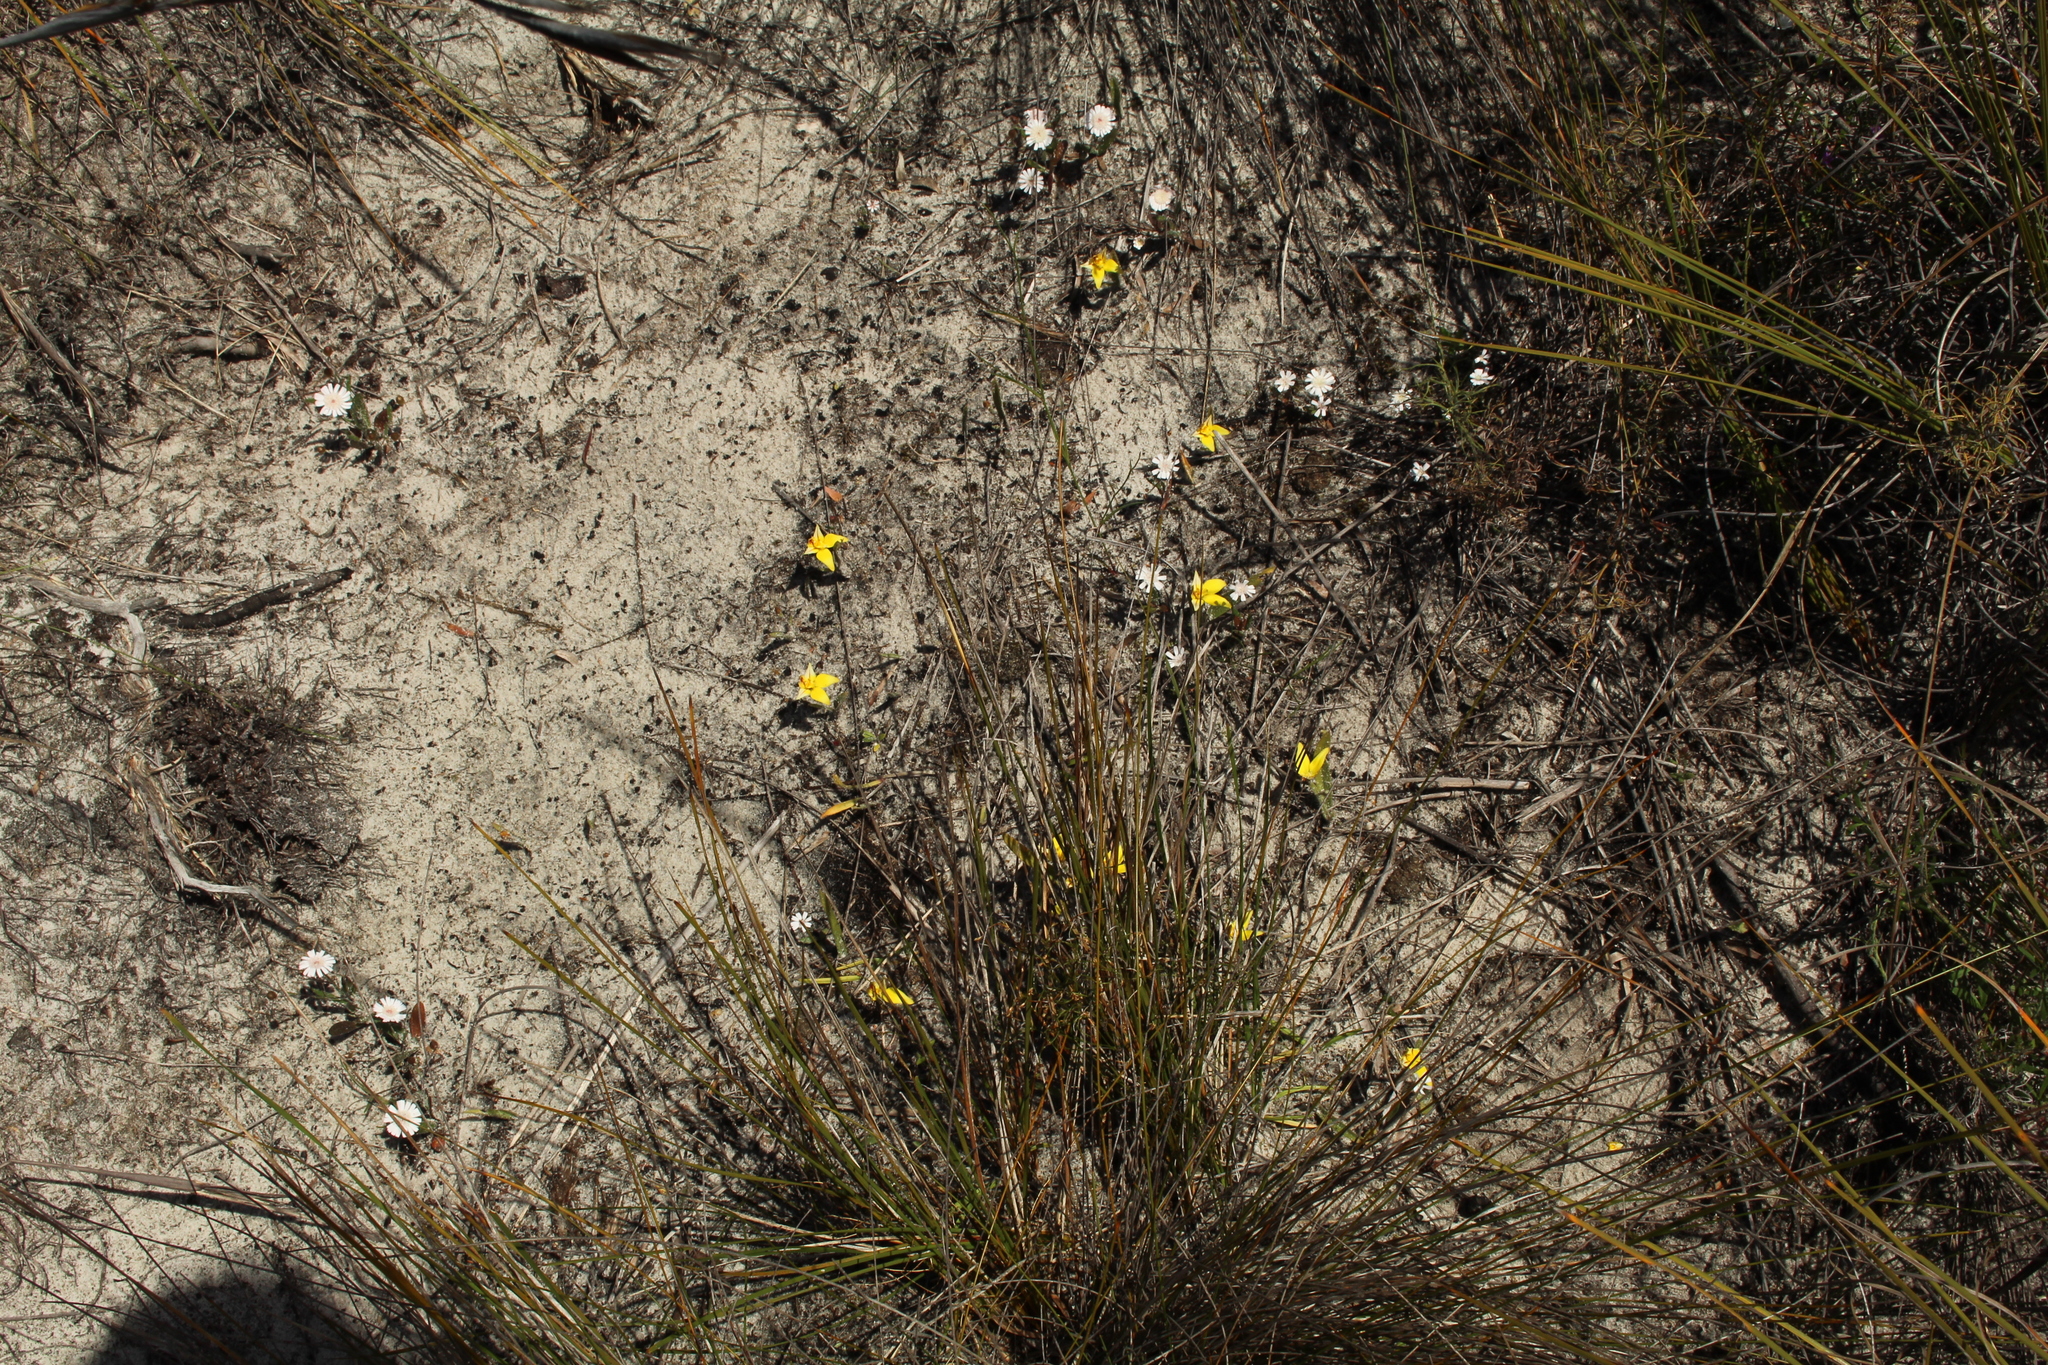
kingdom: Plantae
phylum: Tracheophyta
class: Liliopsida
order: Asparagales
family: Orchidaceae
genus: Caladenia
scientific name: Caladenia flava
